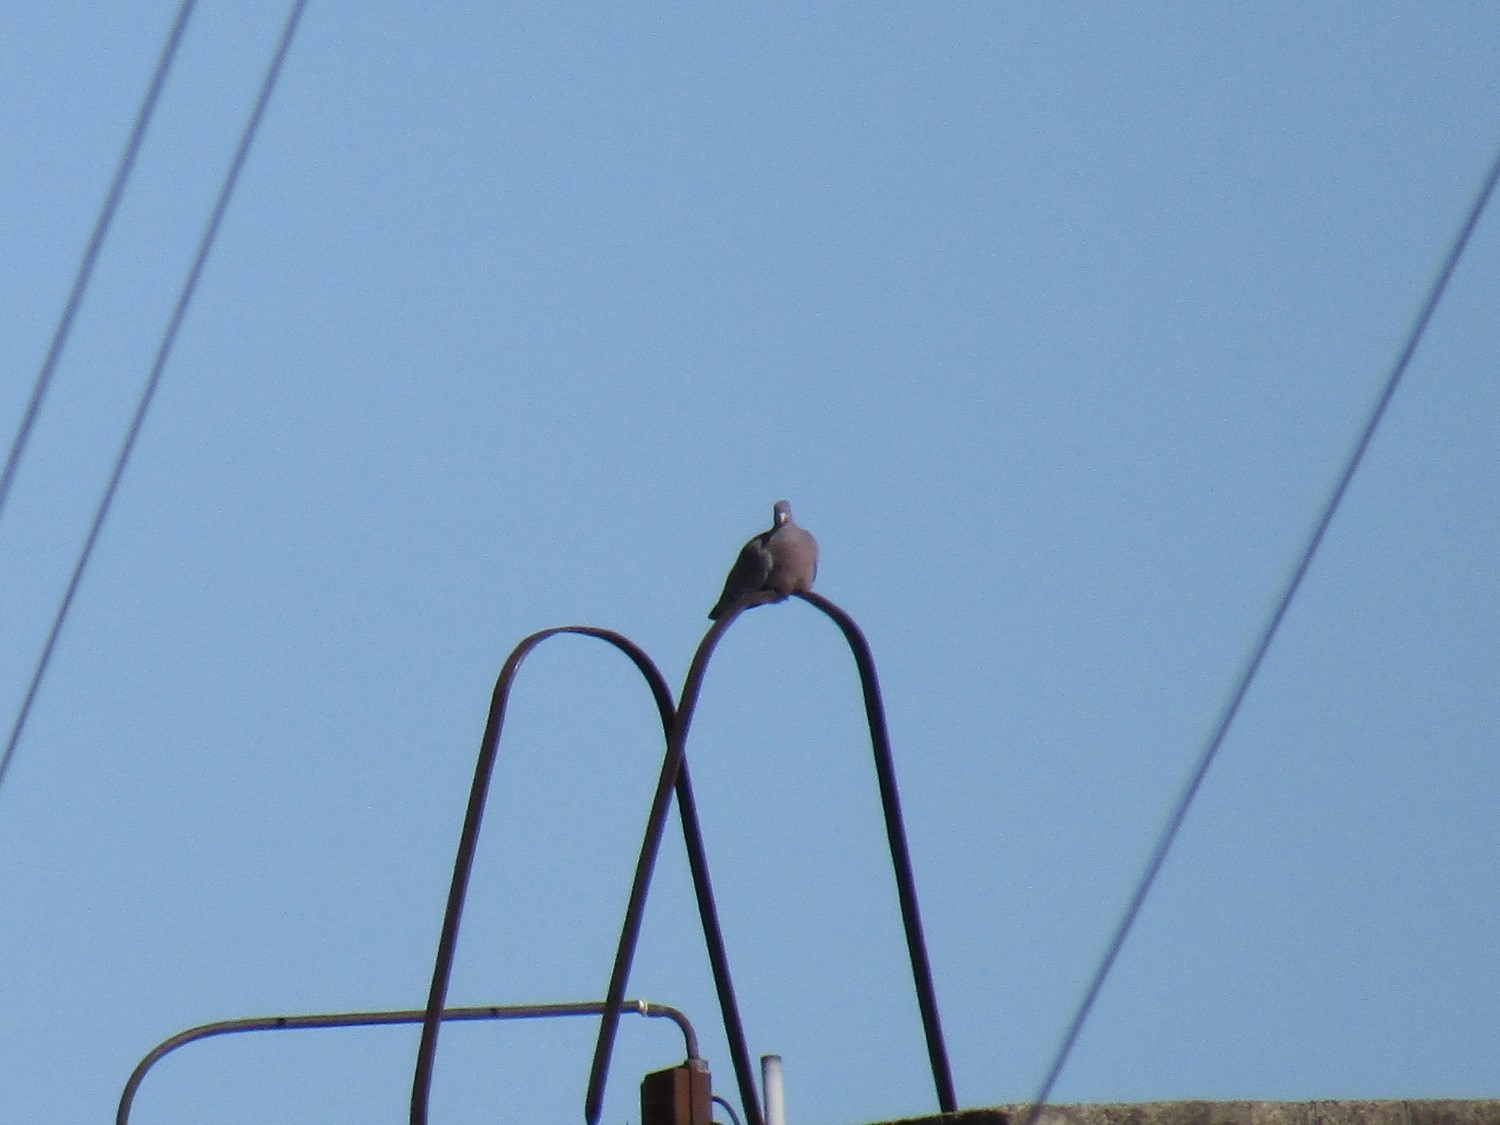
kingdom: Animalia
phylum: Chordata
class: Aves
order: Columbiformes
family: Columbidae
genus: Patagioenas
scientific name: Patagioenas picazuro
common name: Picazuro pigeon
